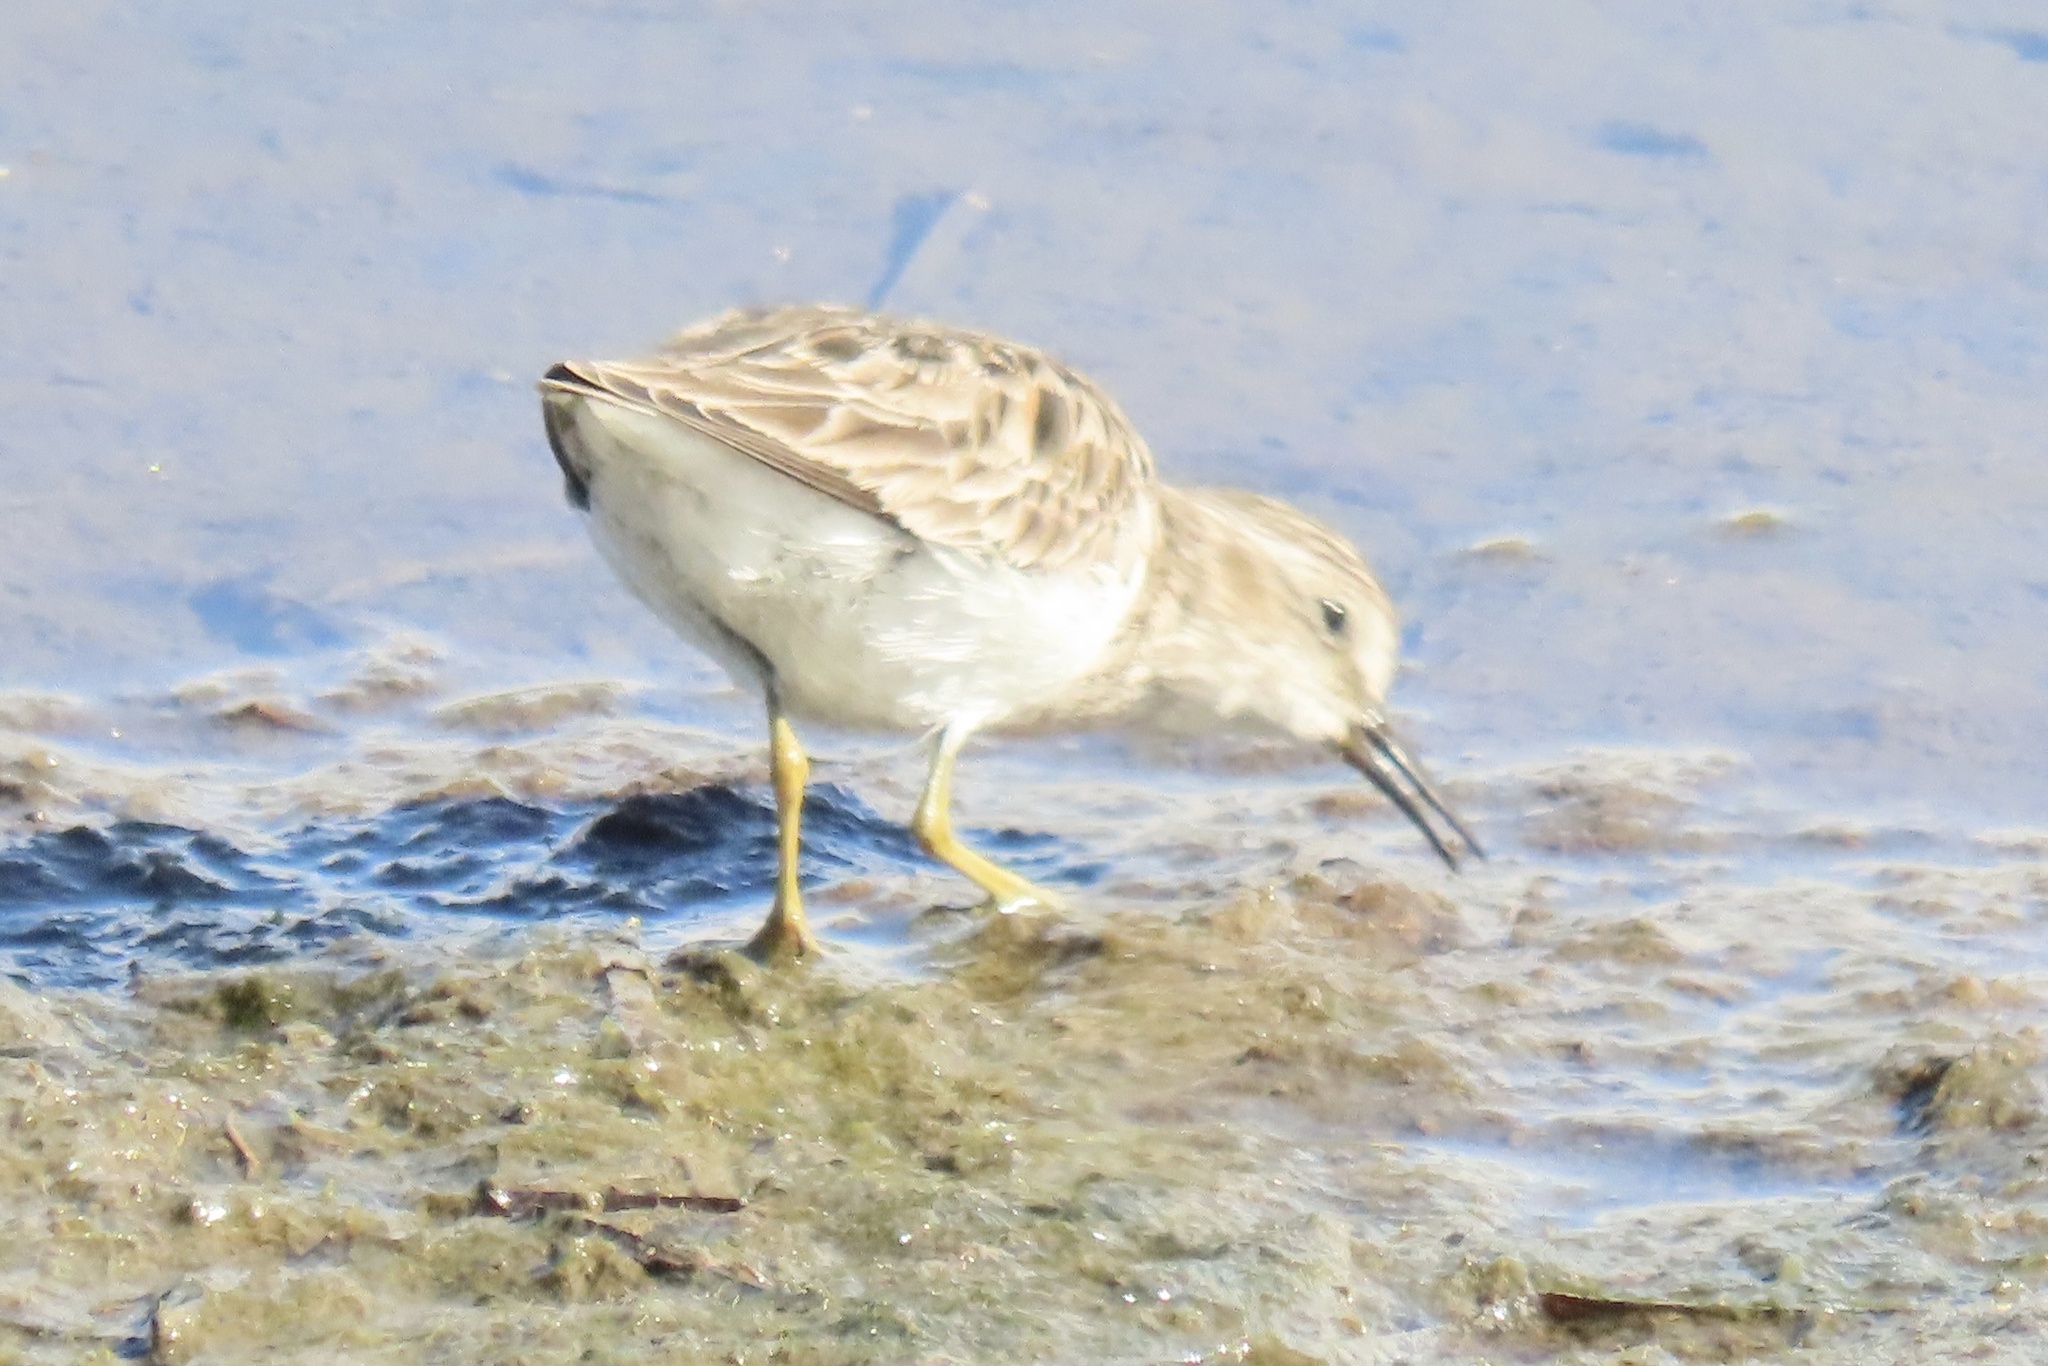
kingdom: Animalia
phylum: Chordata
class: Aves
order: Charadriiformes
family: Scolopacidae
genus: Calidris
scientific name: Calidris minutilla
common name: Least sandpiper
